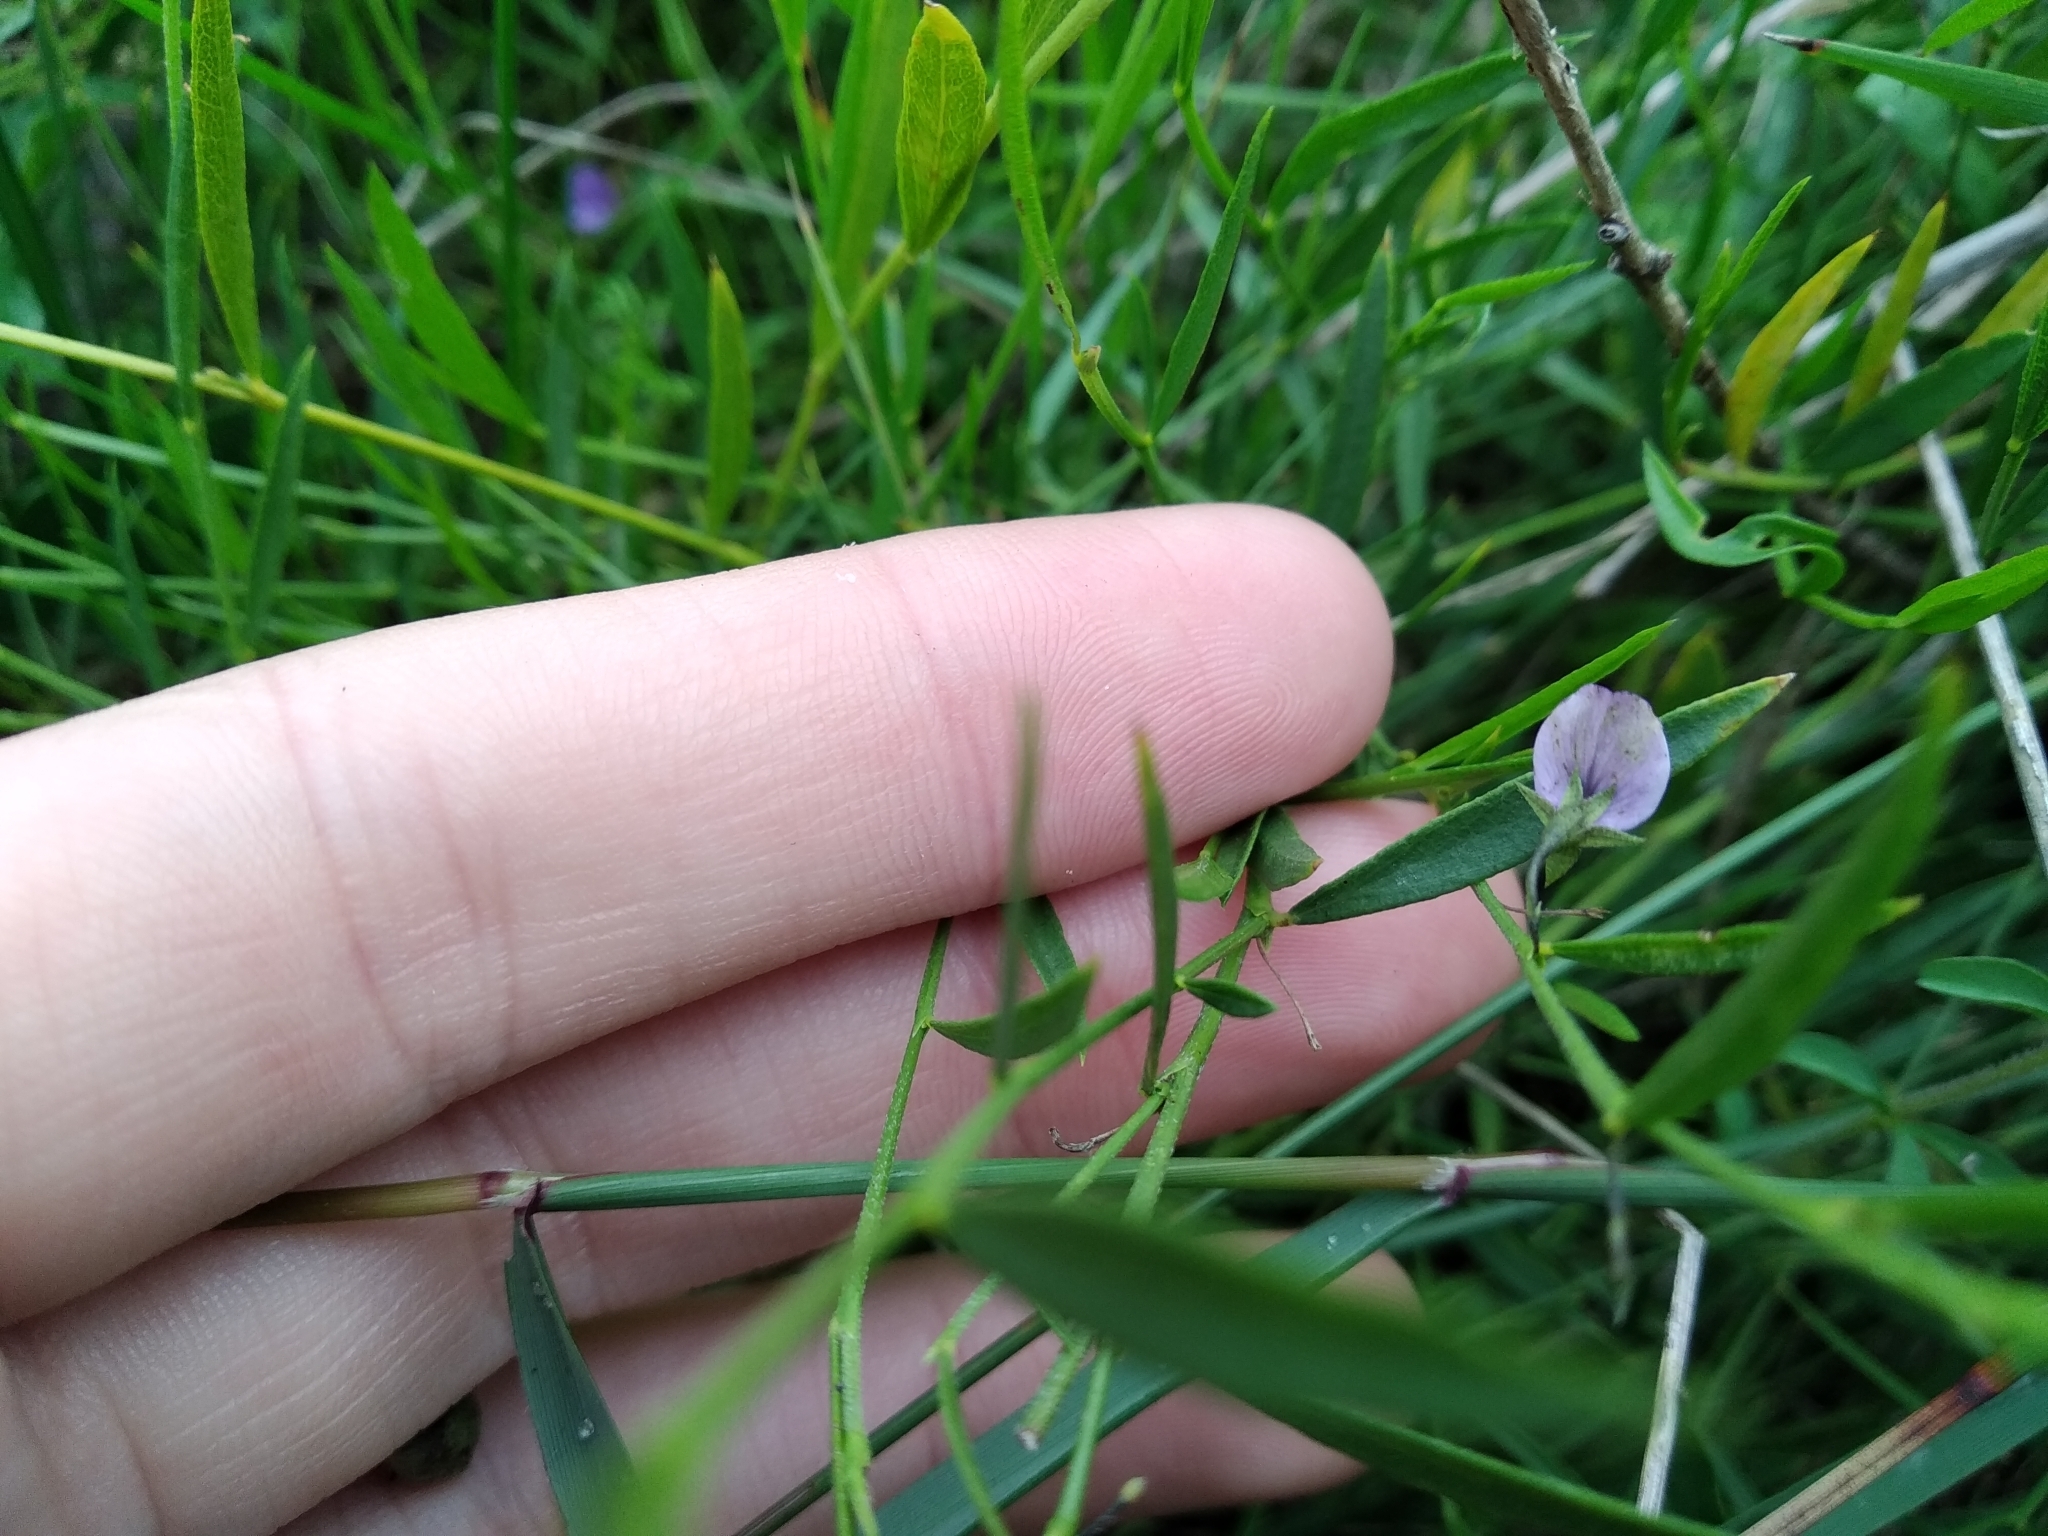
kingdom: Plantae
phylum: Tracheophyta
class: Magnoliopsida
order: Fabales
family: Fabaceae
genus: Psoralea
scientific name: Psoralea laxa
